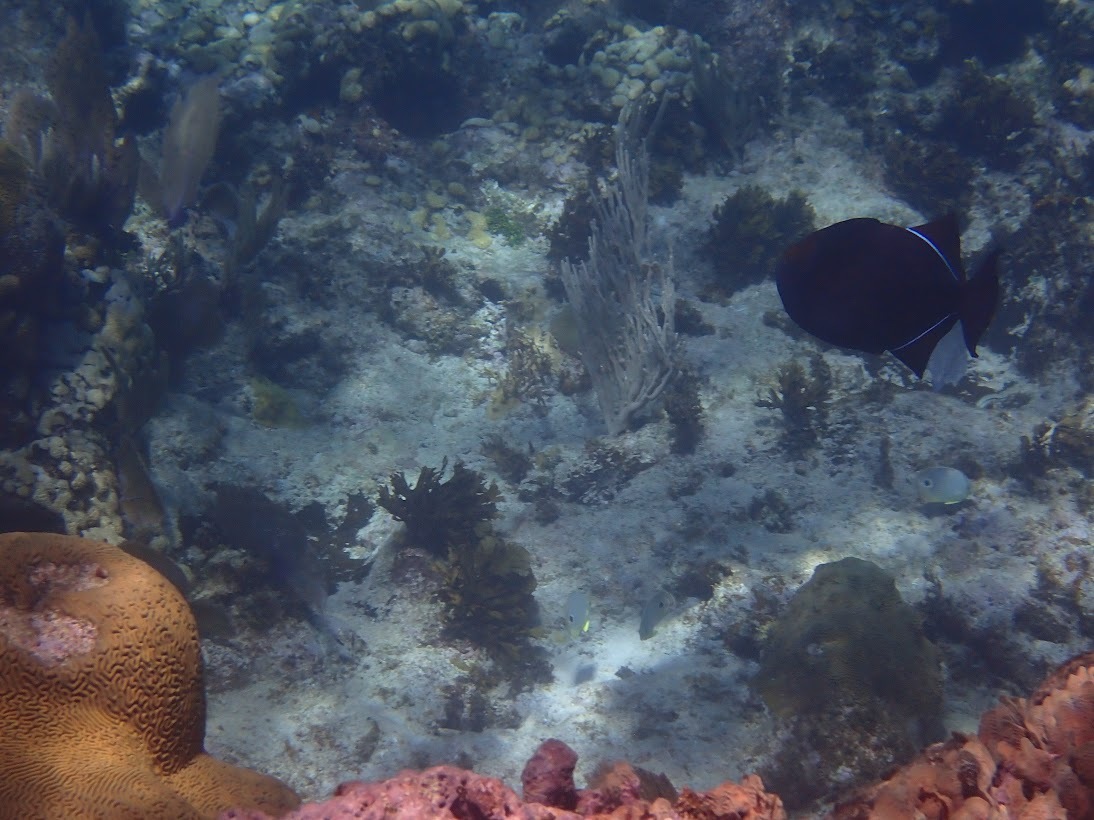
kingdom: Animalia
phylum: Chordata
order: Tetraodontiformes
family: Balistidae
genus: Melichthys
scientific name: Melichthys niger
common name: Black durgon
